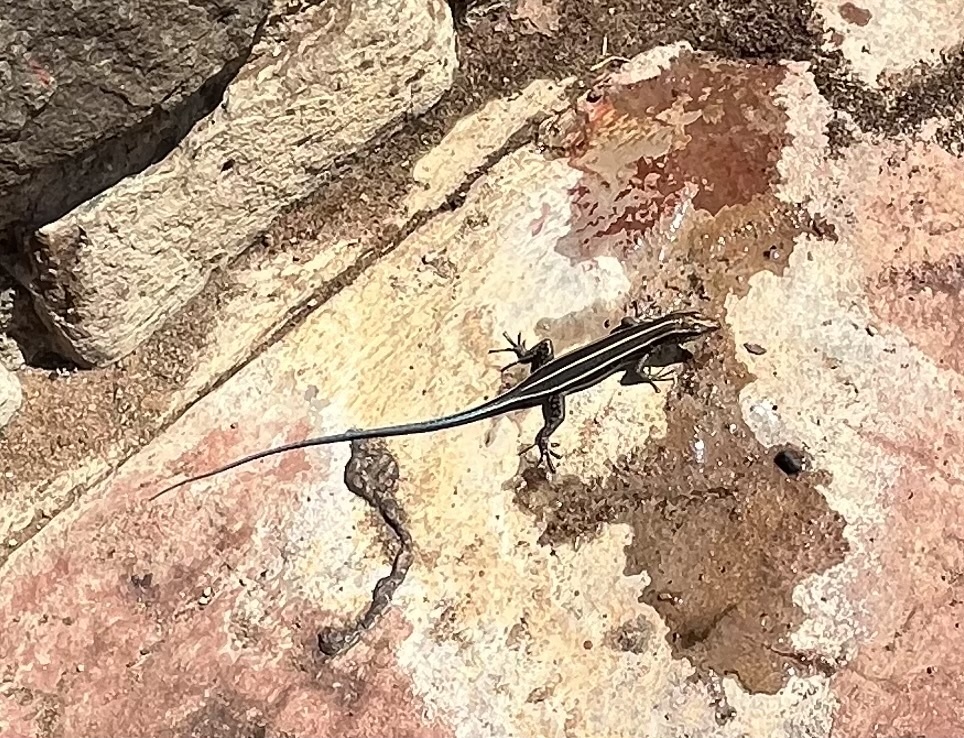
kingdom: Animalia
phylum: Chordata
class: Squamata
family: Scincidae
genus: Trachylepis
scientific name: Trachylepis margaritifera
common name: Rainbow skink
